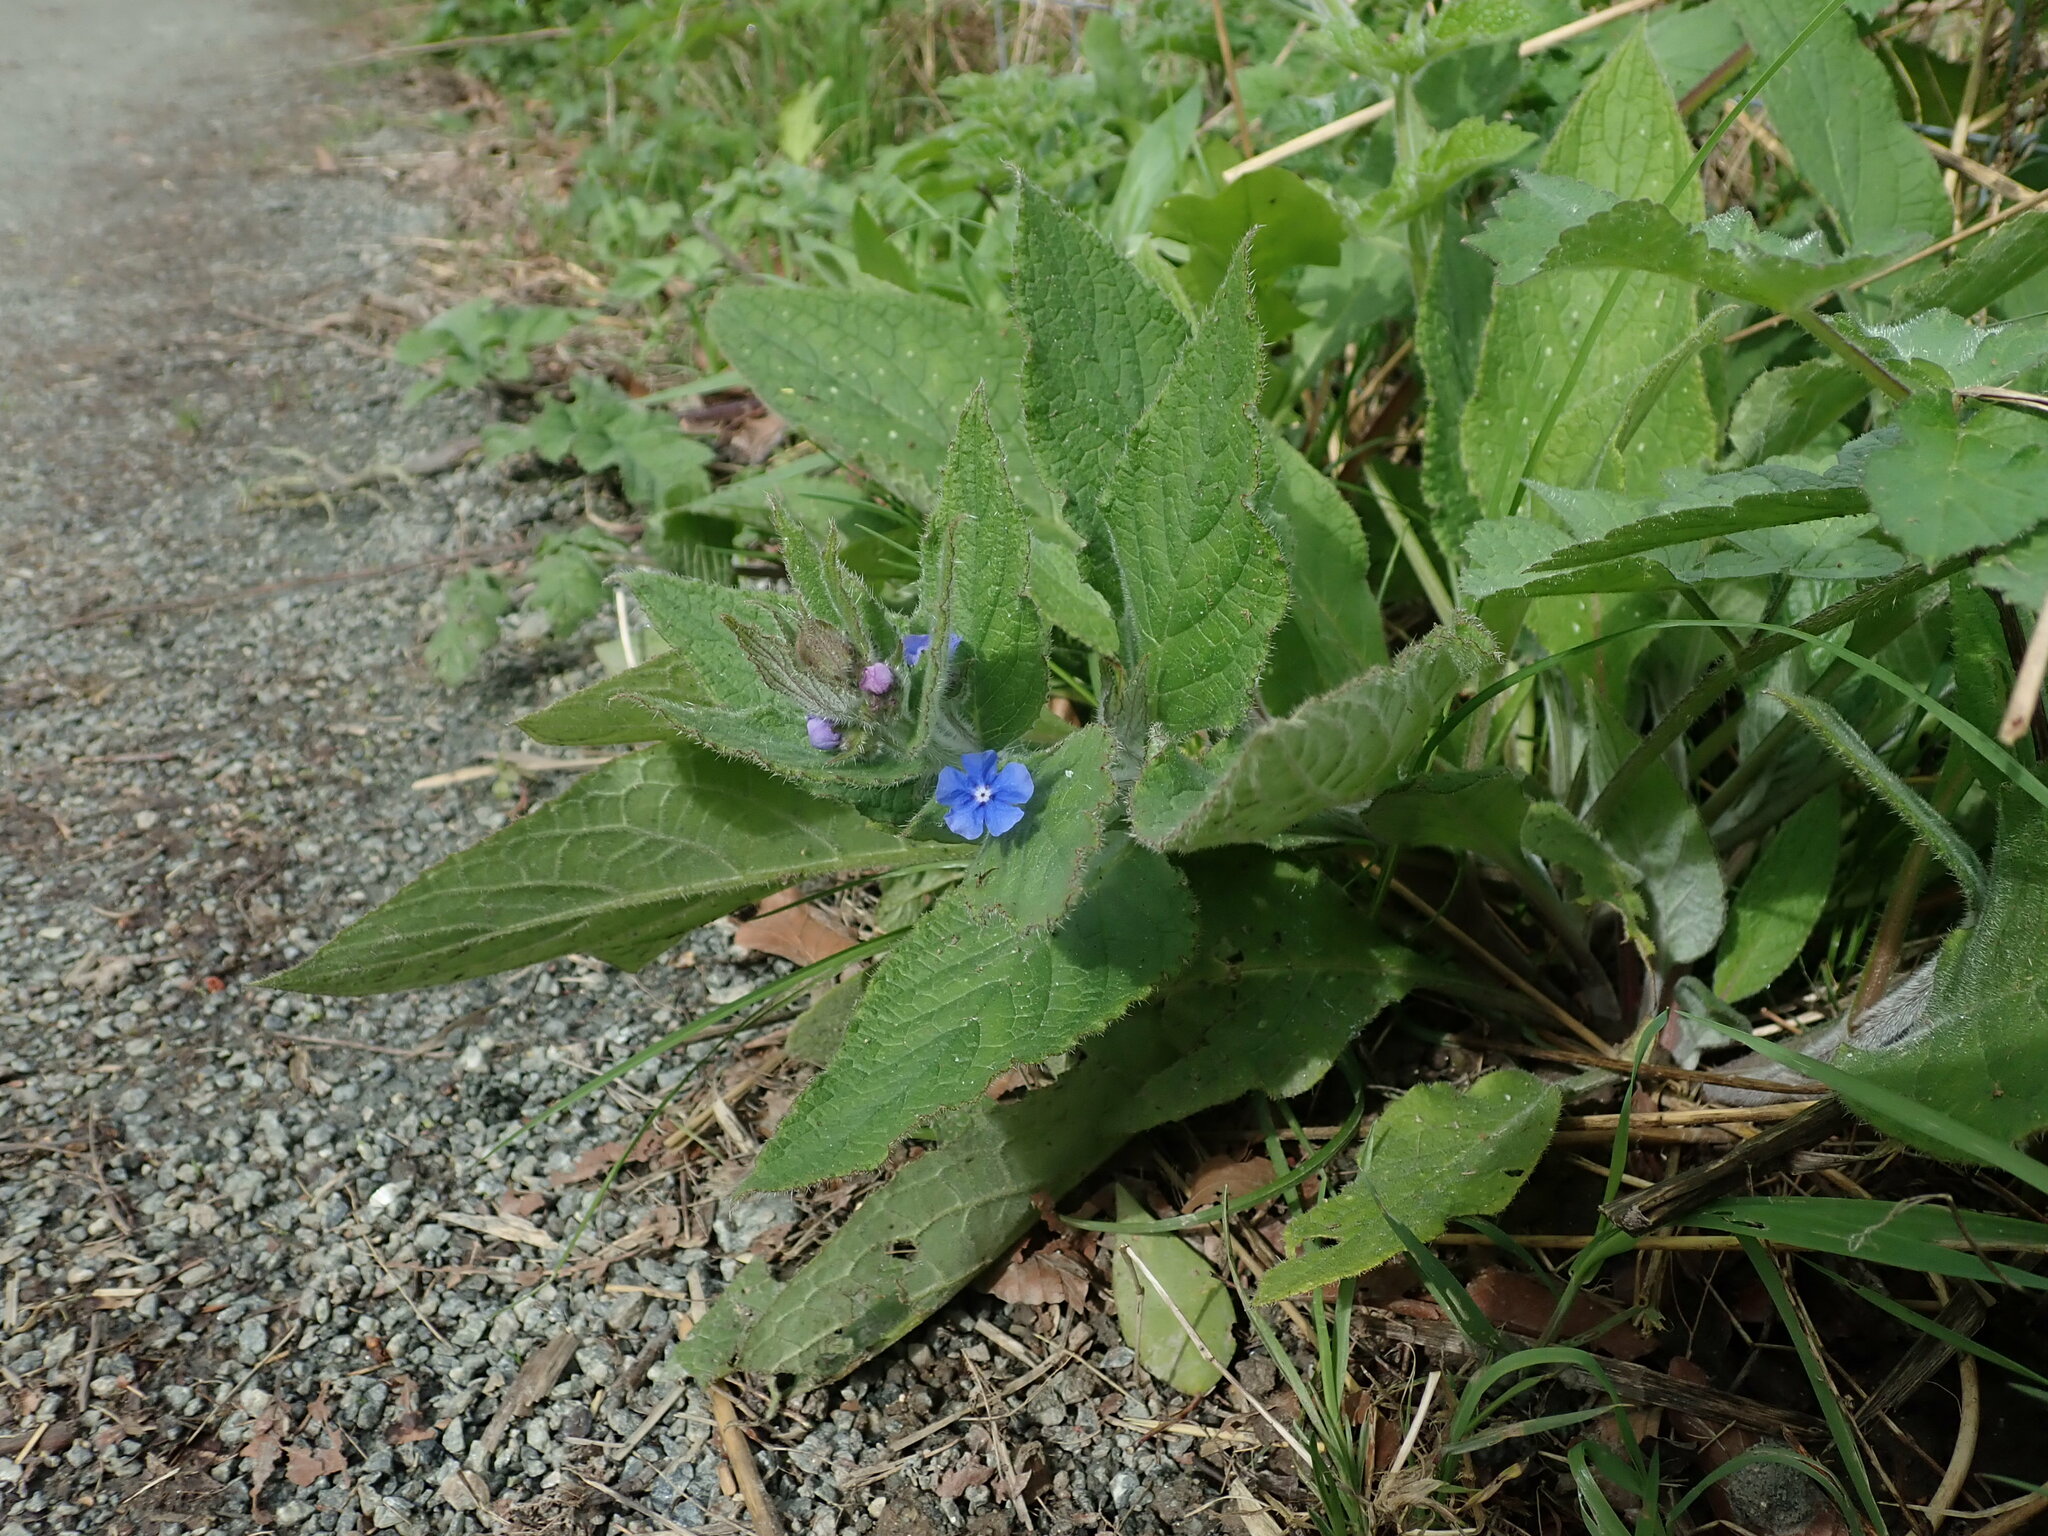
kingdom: Plantae
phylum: Tracheophyta
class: Magnoliopsida
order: Boraginales
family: Boraginaceae
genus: Pentaglottis
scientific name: Pentaglottis sempervirens
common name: Green alkanet
